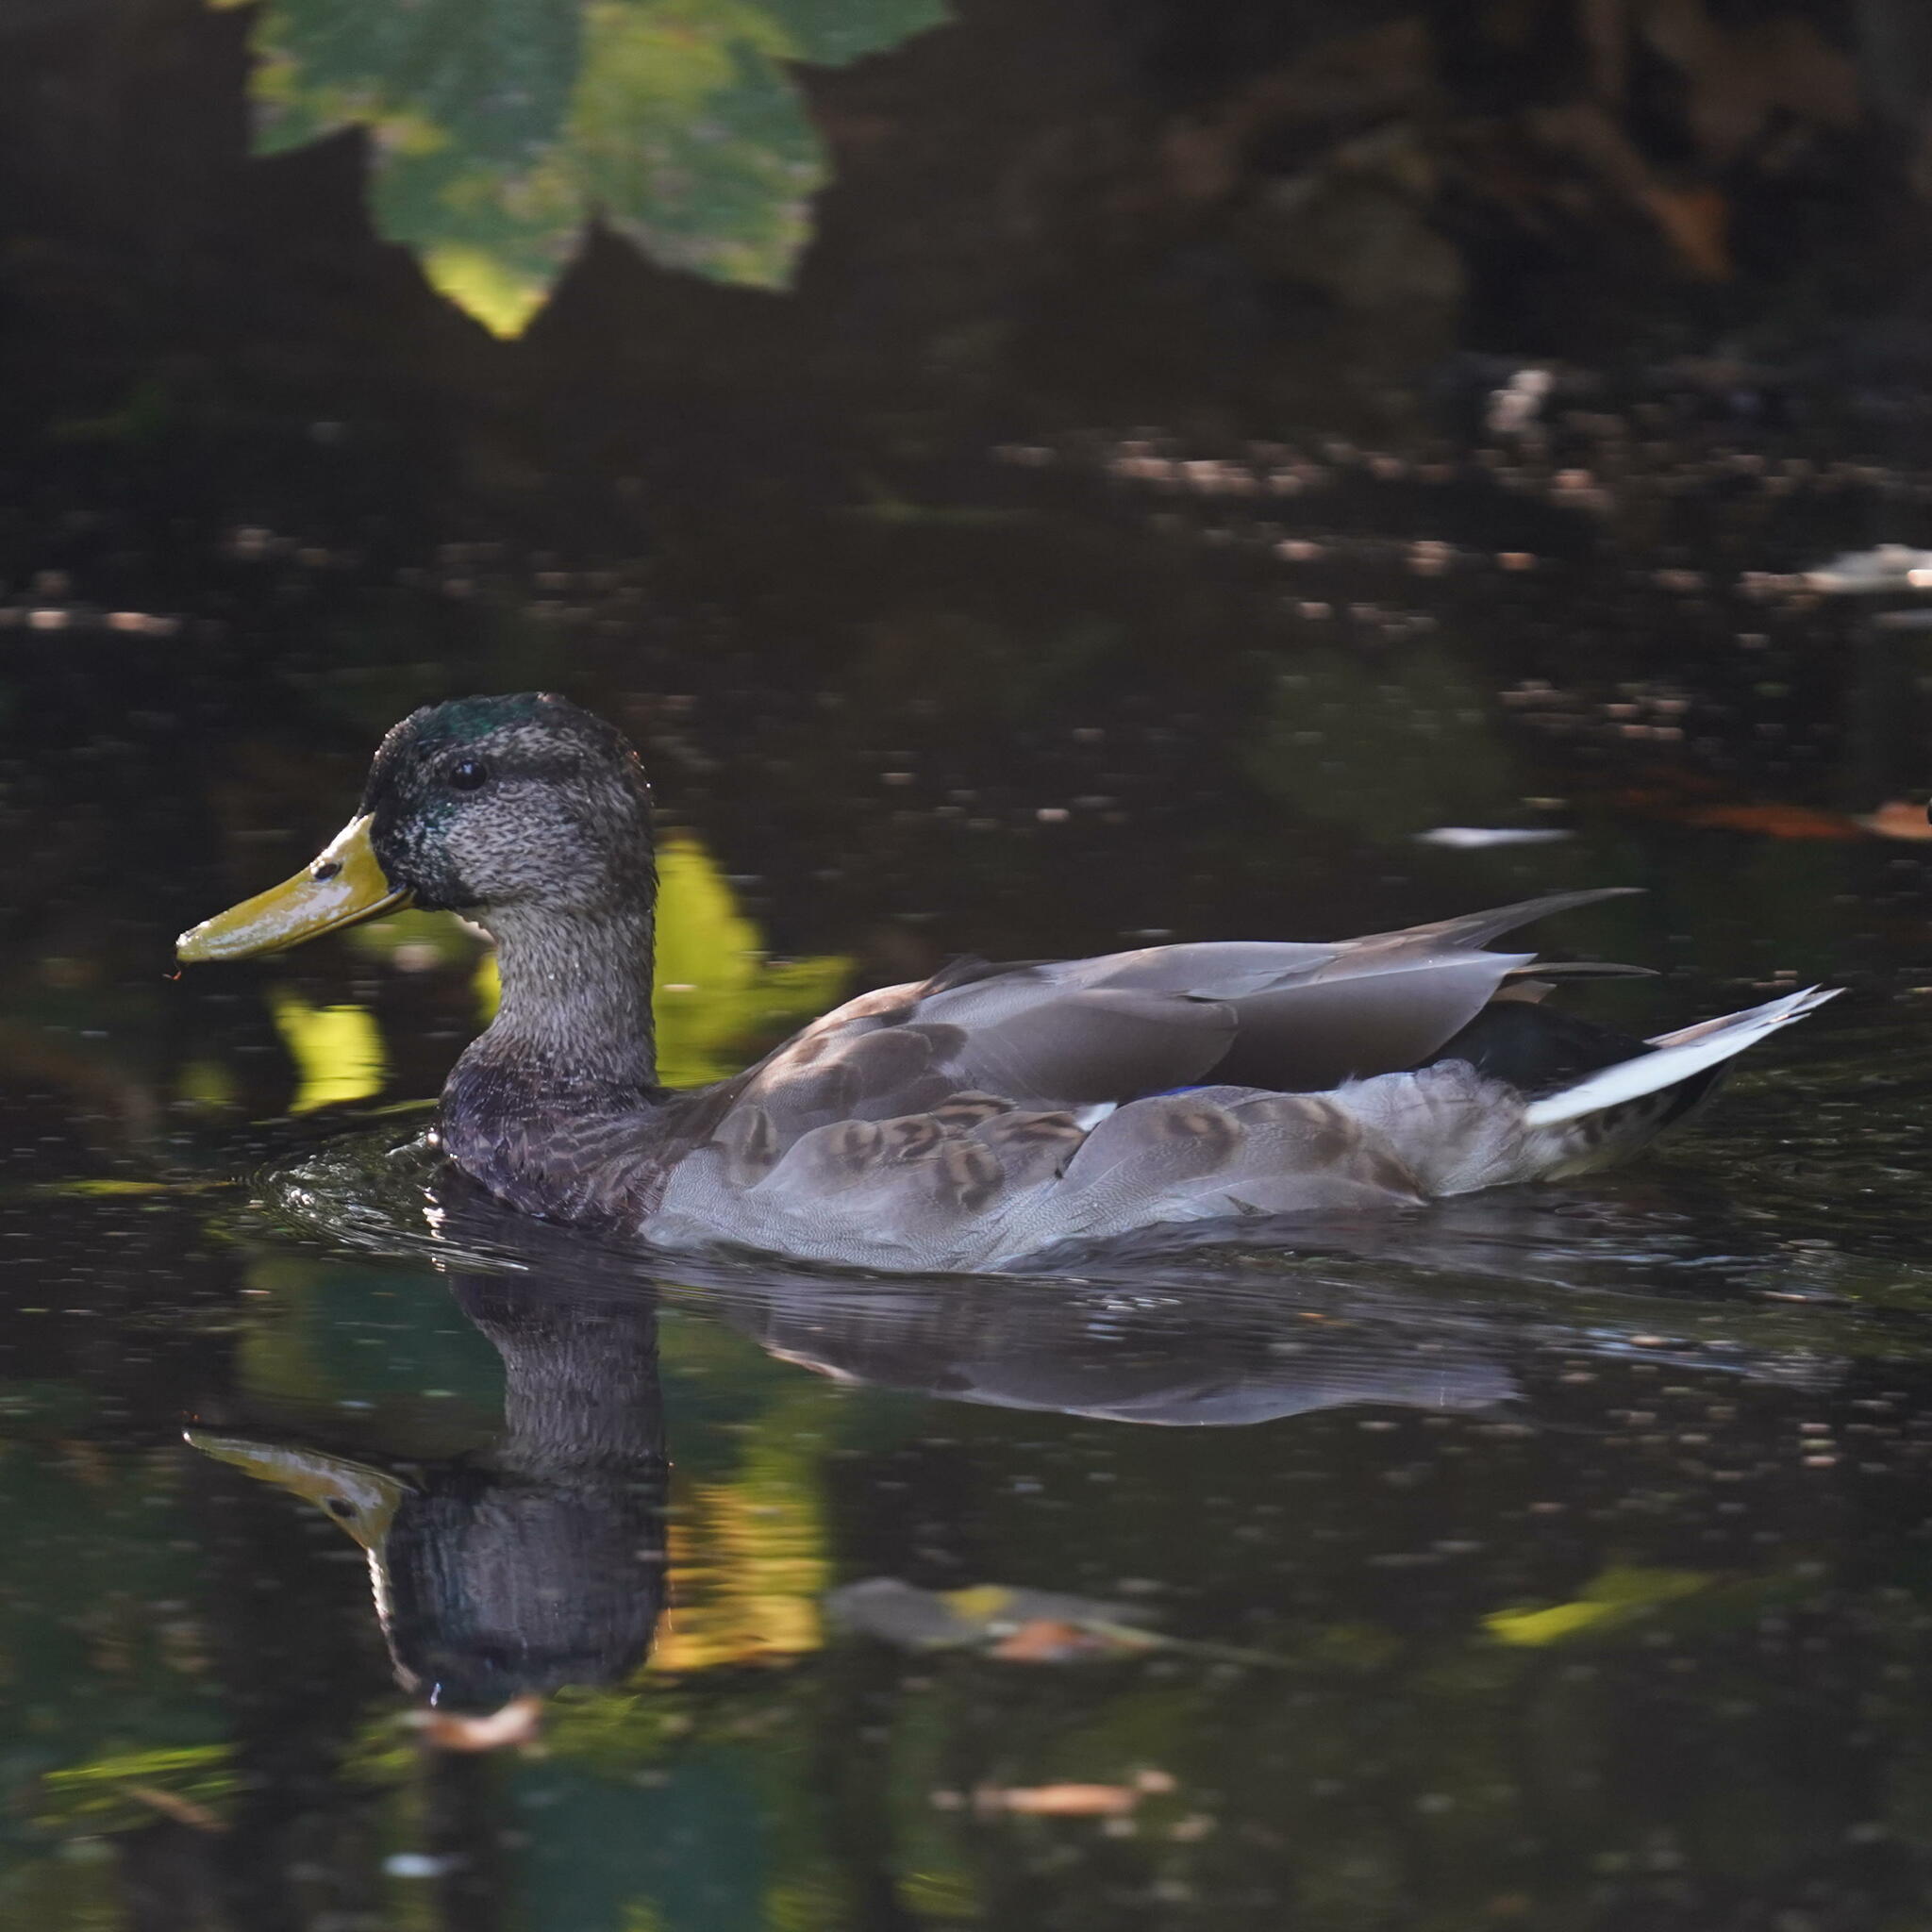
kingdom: Animalia
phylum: Chordata
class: Aves
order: Anseriformes
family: Anatidae
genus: Anas
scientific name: Anas platyrhynchos
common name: Mallard
